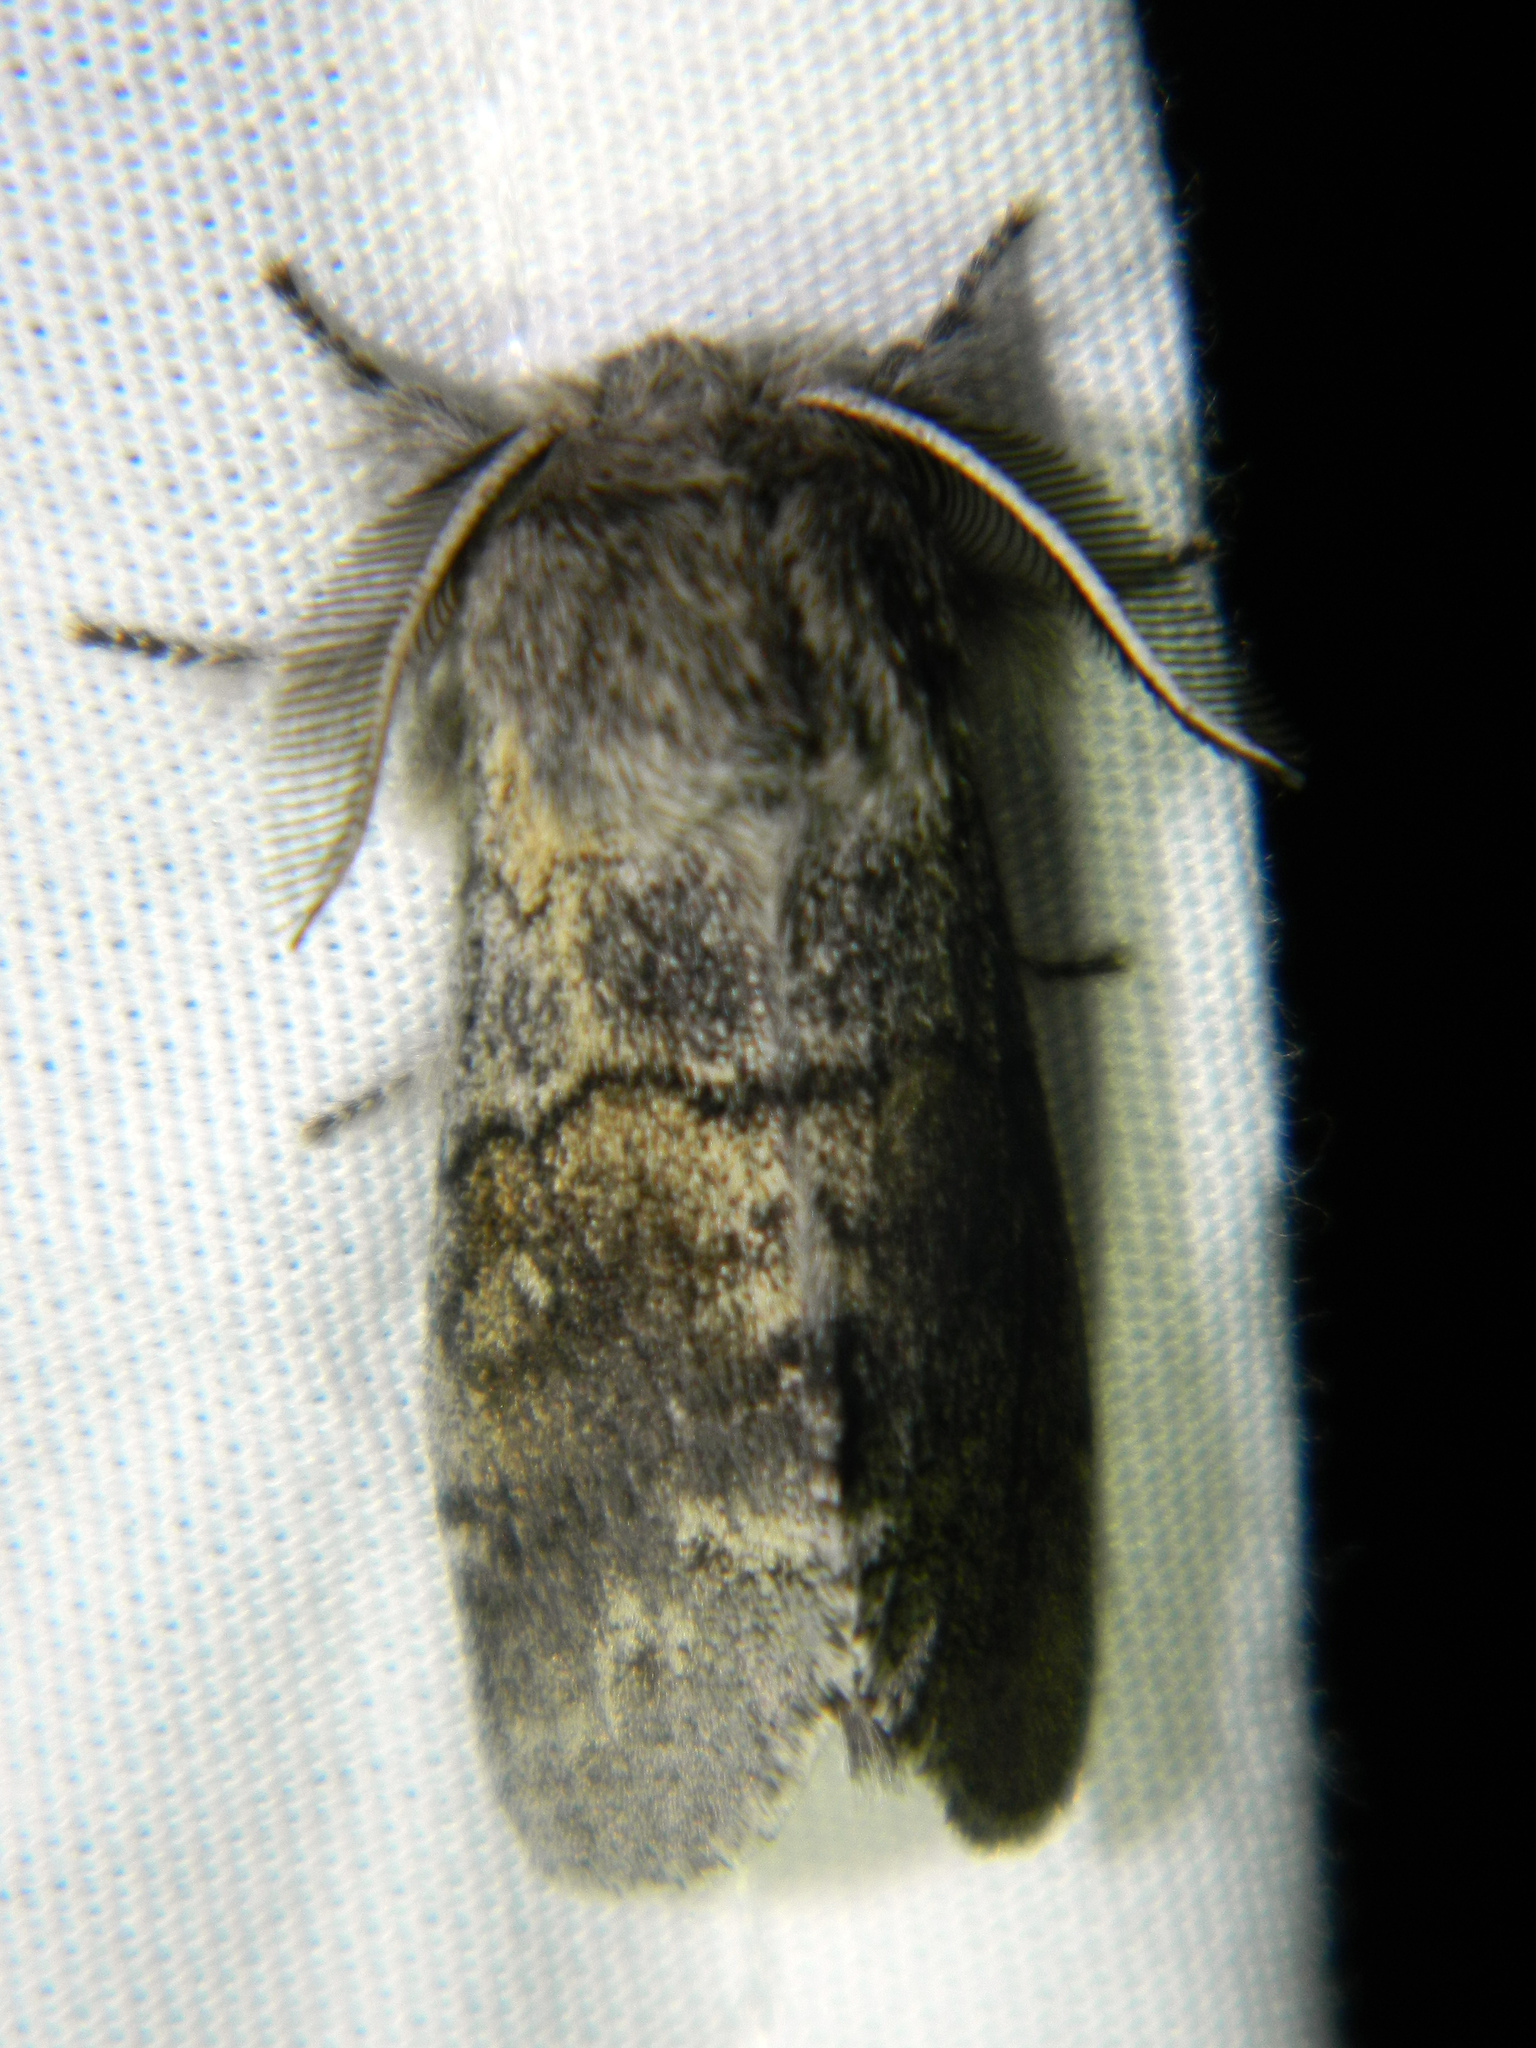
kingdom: Animalia
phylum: Arthropoda
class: Insecta
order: Lepidoptera
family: Notodontidae
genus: Gluphisia
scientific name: Gluphisia avimacula
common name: Four-spotted gluphisia moth
